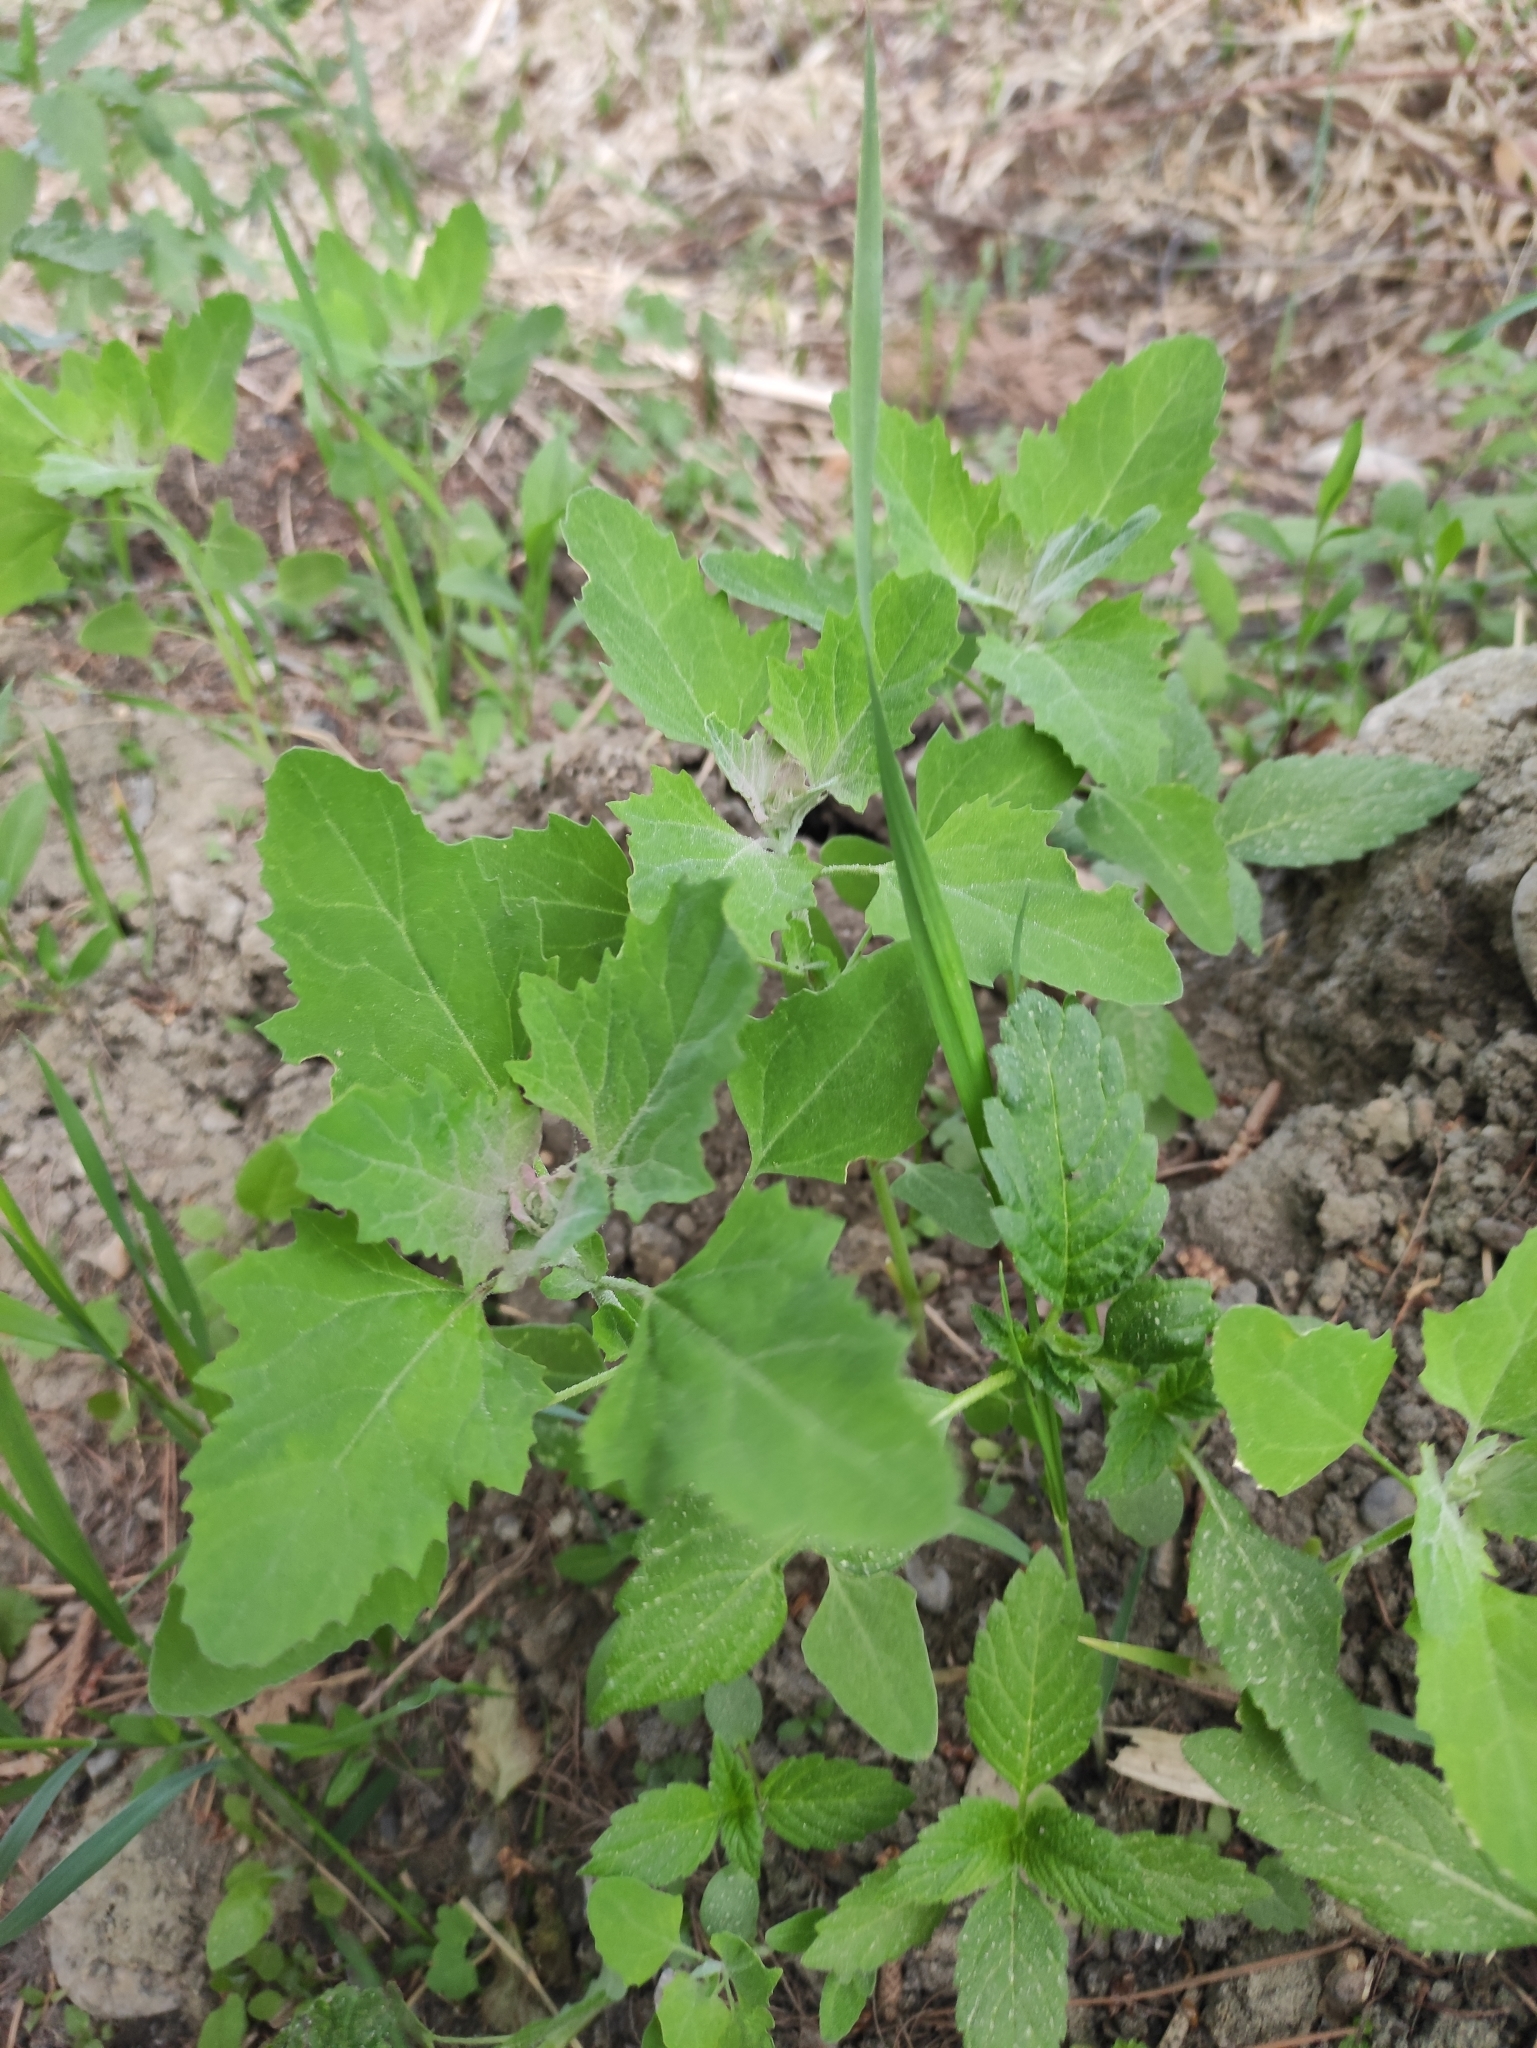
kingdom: Plantae
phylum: Tracheophyta
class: Magnoliopsida
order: Caryophyllales
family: Amaranthaceae
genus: Chenopodium
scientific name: Chenopodium album
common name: Fat-hen
